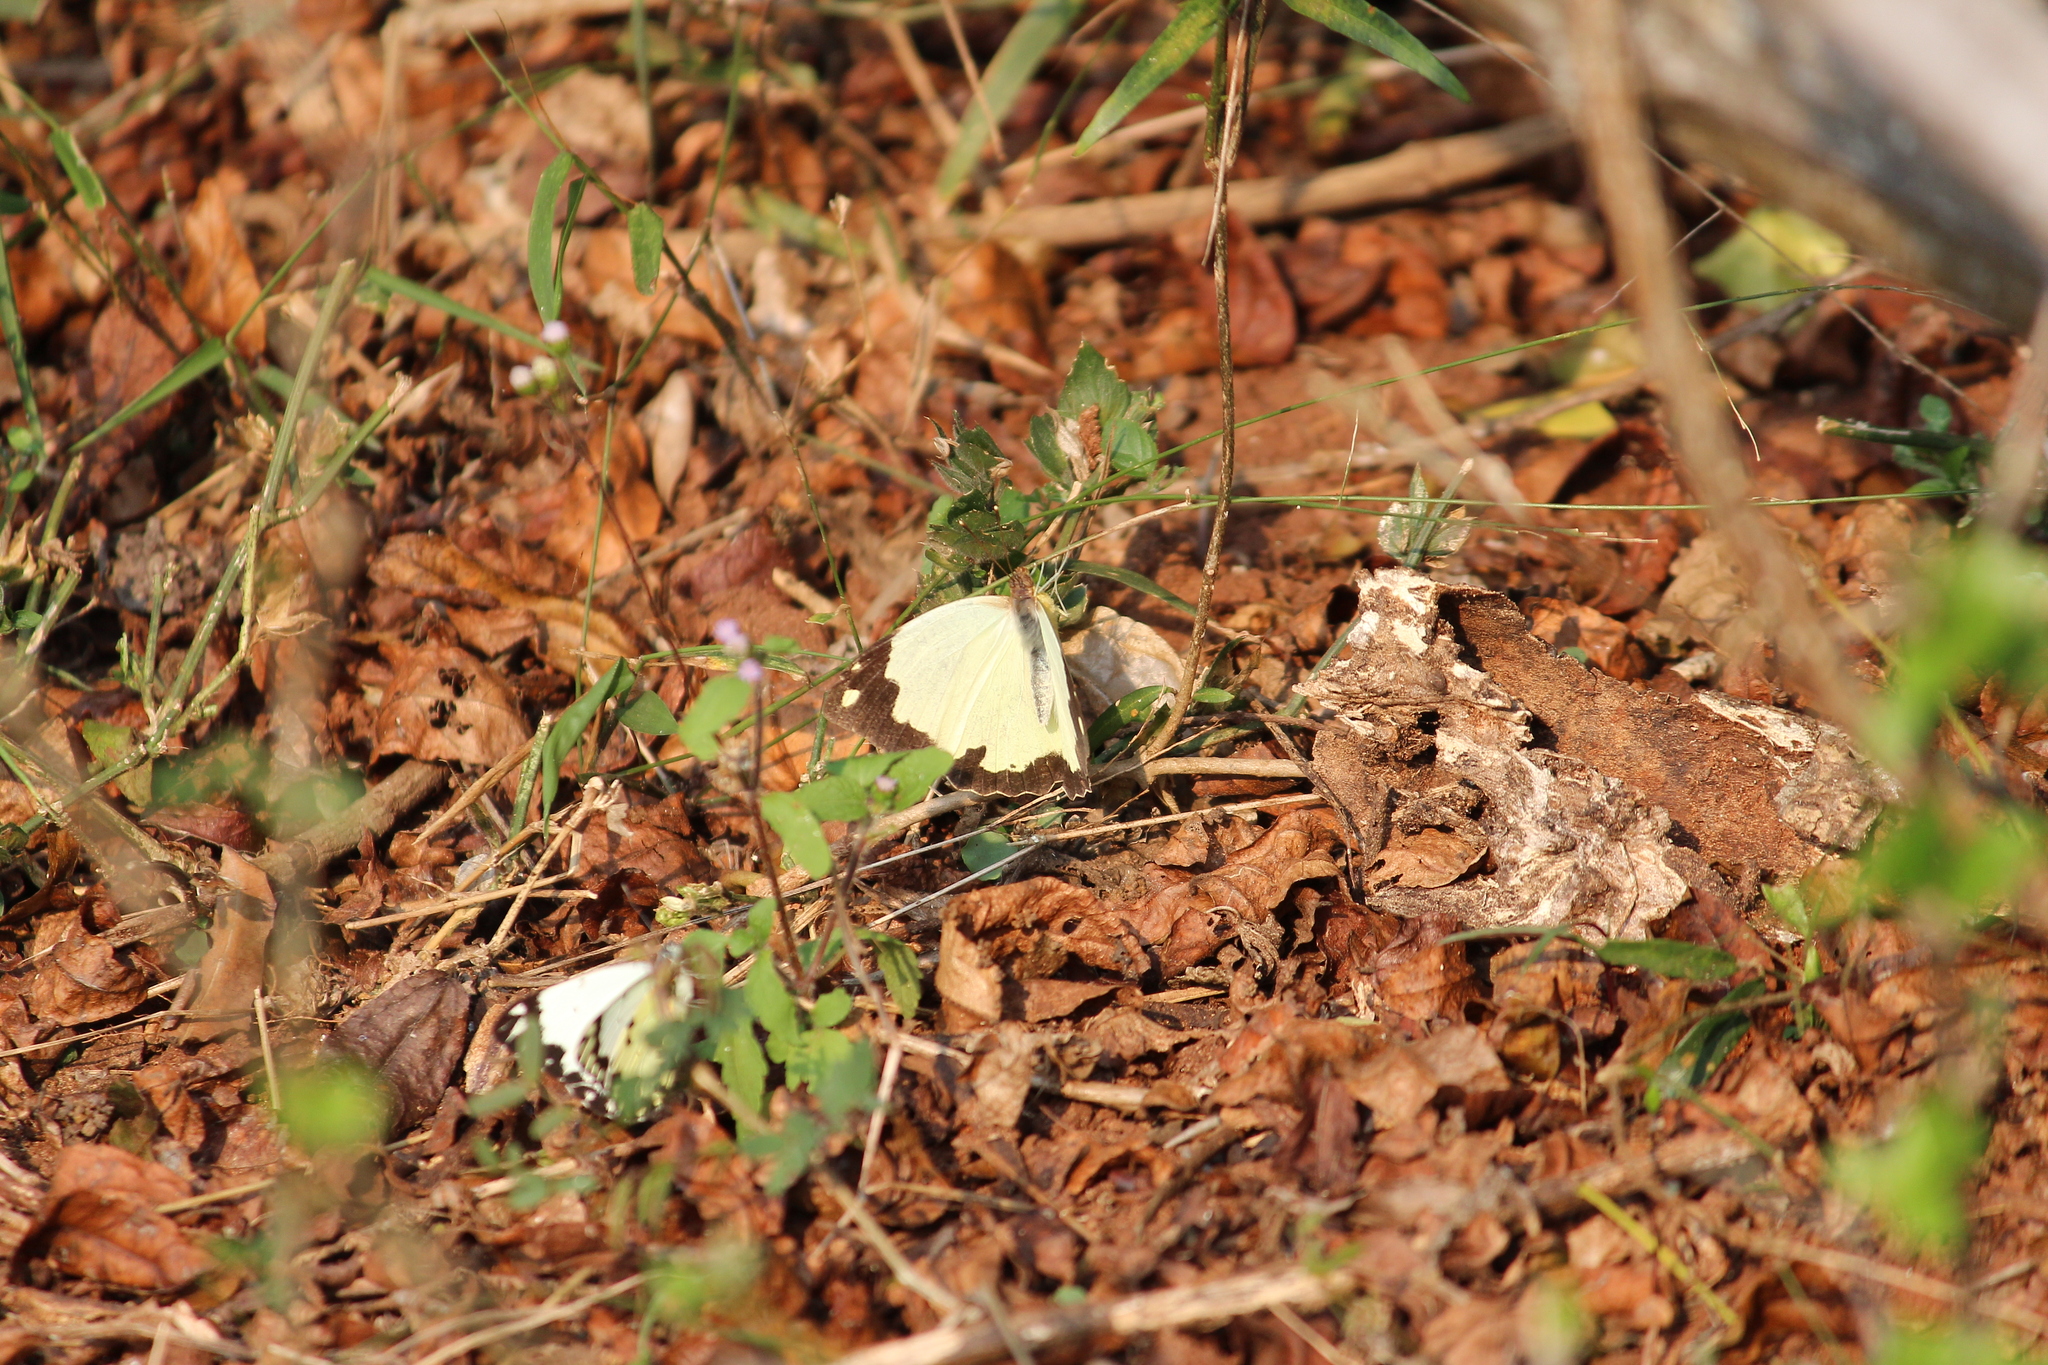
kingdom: Animalia
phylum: Arthropoda
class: Insecta
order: Lepidoptera
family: Pieridae
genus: Belenois
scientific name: Belenois creona
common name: African caper white
